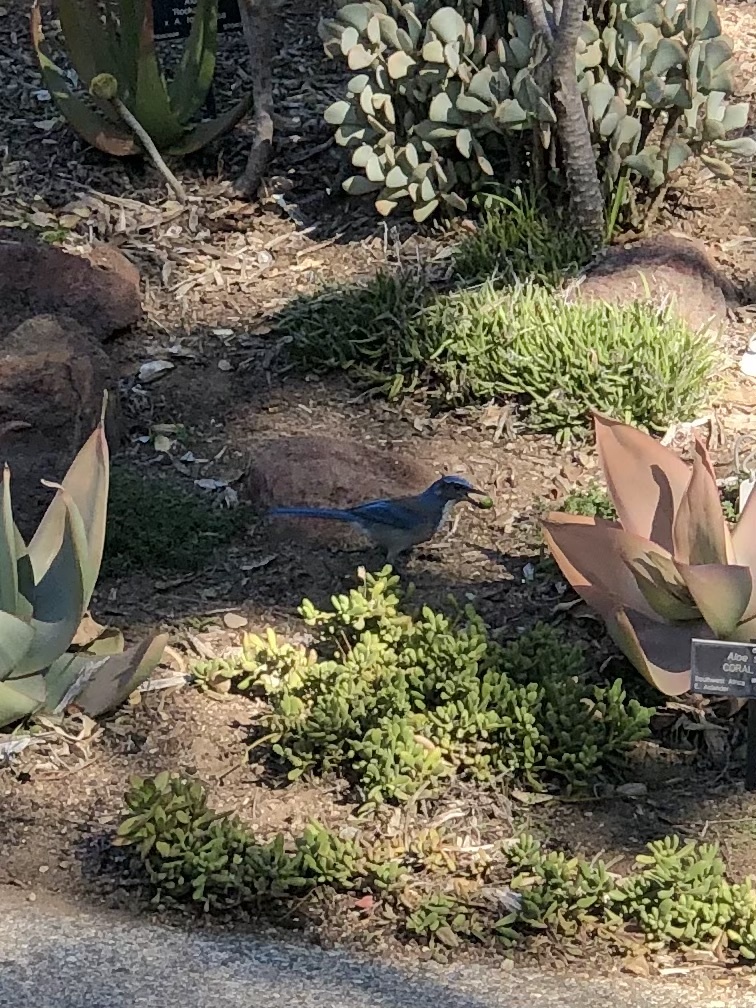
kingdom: Animalia
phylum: Chordata
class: Aves
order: Passeriformes
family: Corvidae
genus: Aphelocoma
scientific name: Aphelocoma californica
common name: California scrub-jay
